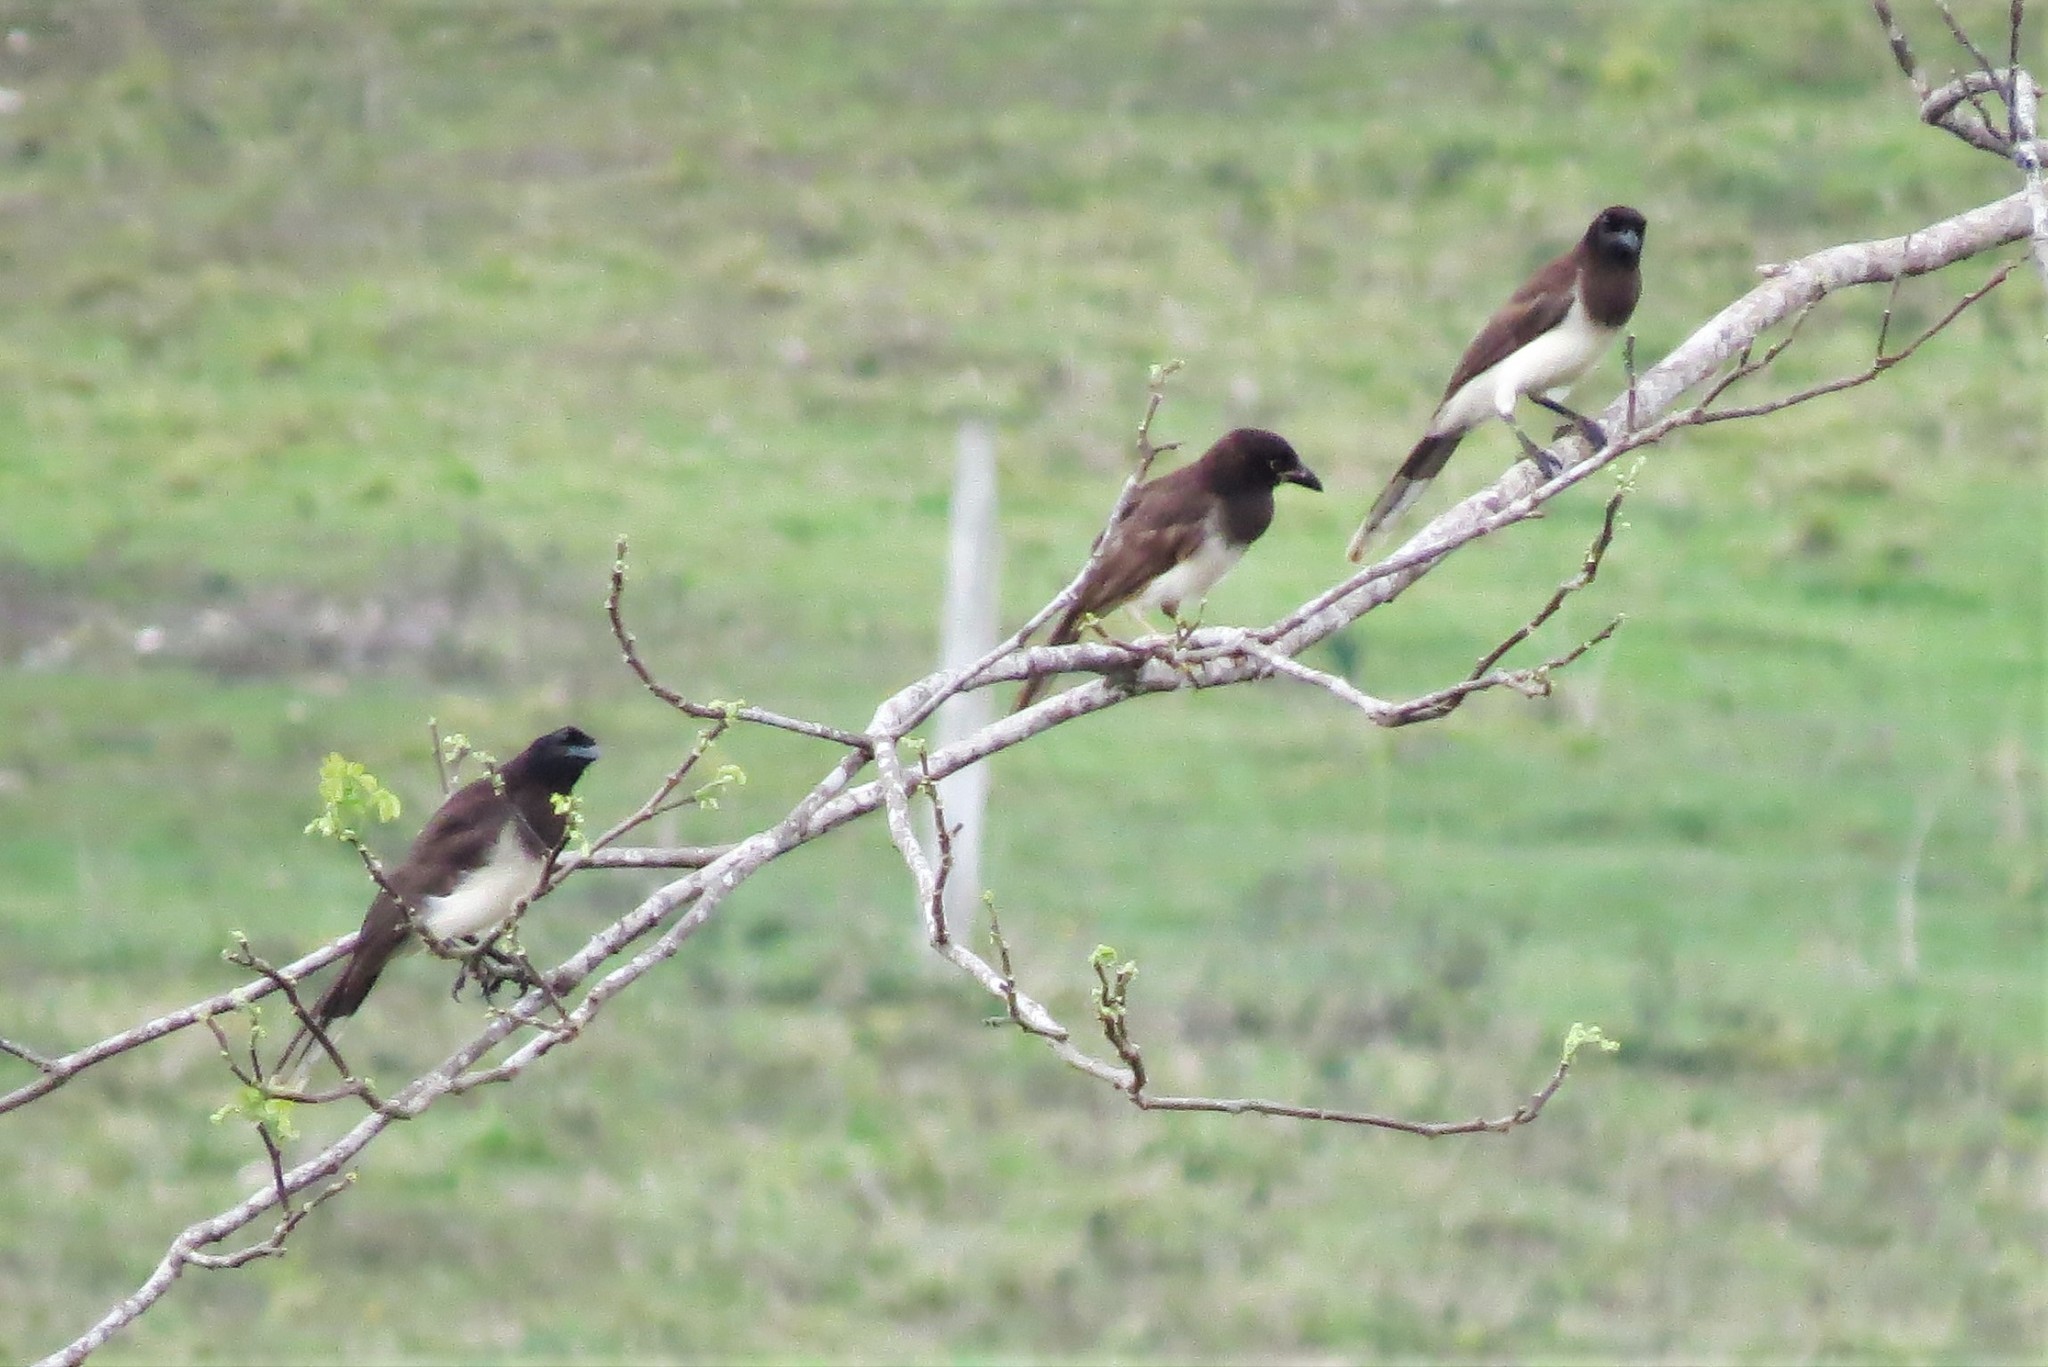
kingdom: Animalia
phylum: Chordata
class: Aves
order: Passeriformes
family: Corvidae
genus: Psilorhinus
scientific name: Psilorhinus morio
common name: Brown jay
